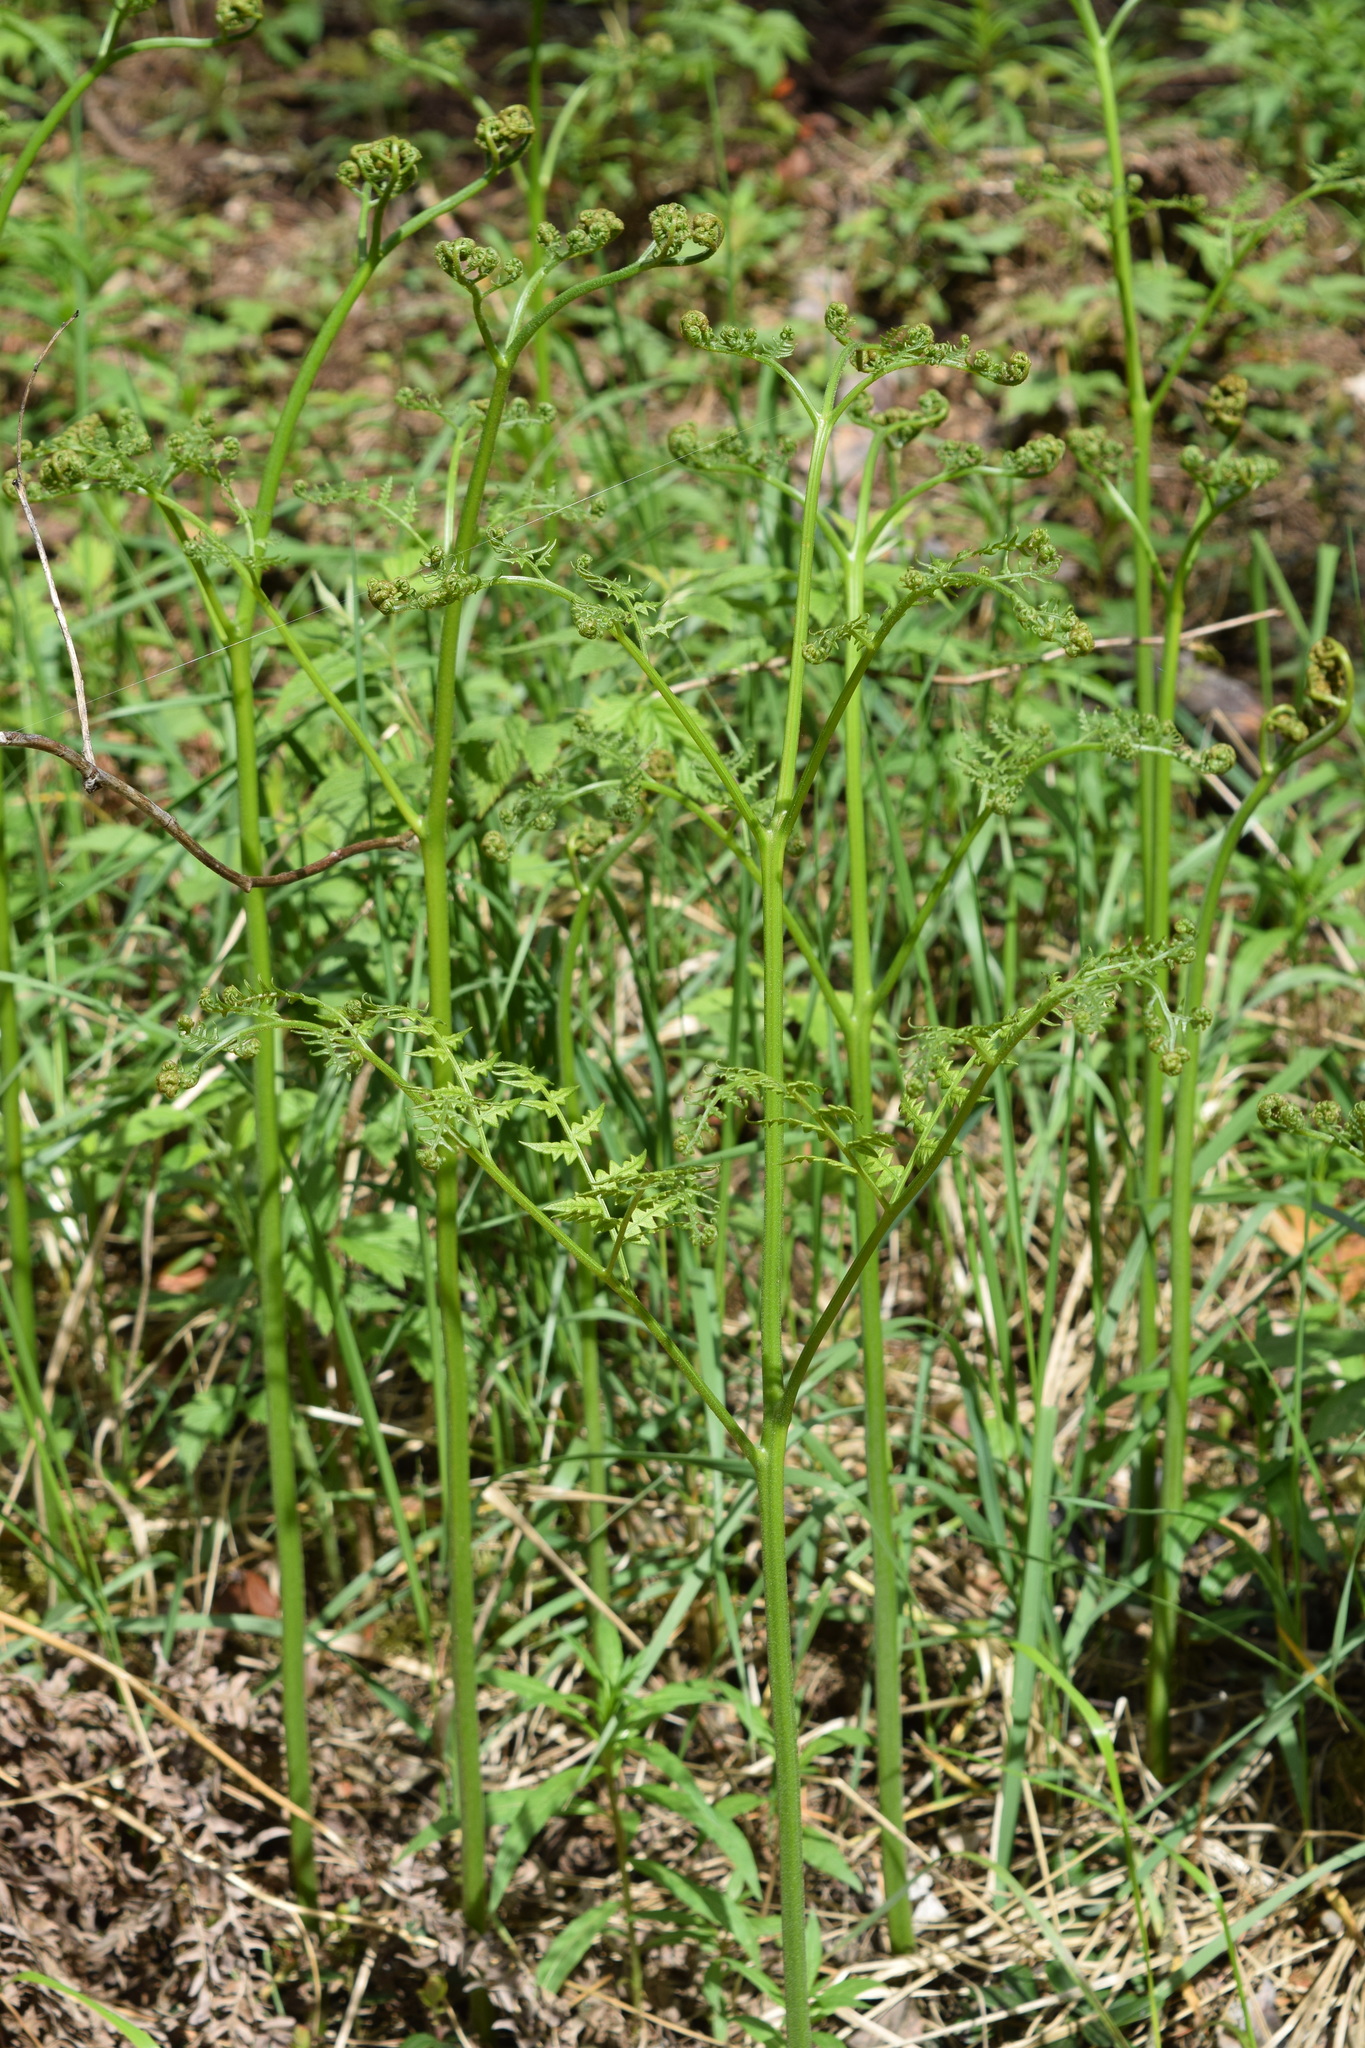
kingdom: Plantae
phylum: Tracheophyta
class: Polypodiopsida
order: Polypodiales
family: Dennstaedtiaceae
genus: Pteridium
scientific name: Pteridium aquilinum
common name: Bracken
